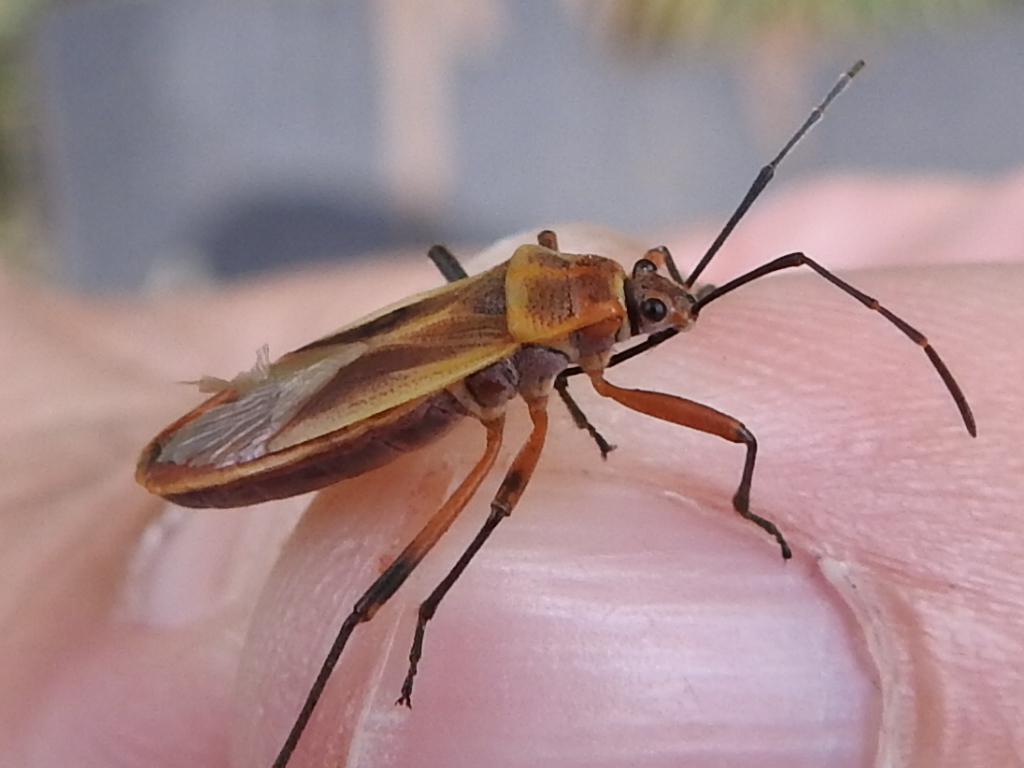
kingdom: Animalia
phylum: Arthropoda
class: Insecta
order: Hemiptera
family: Largidae
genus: Stenomacra
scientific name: Stenomacra marginella
